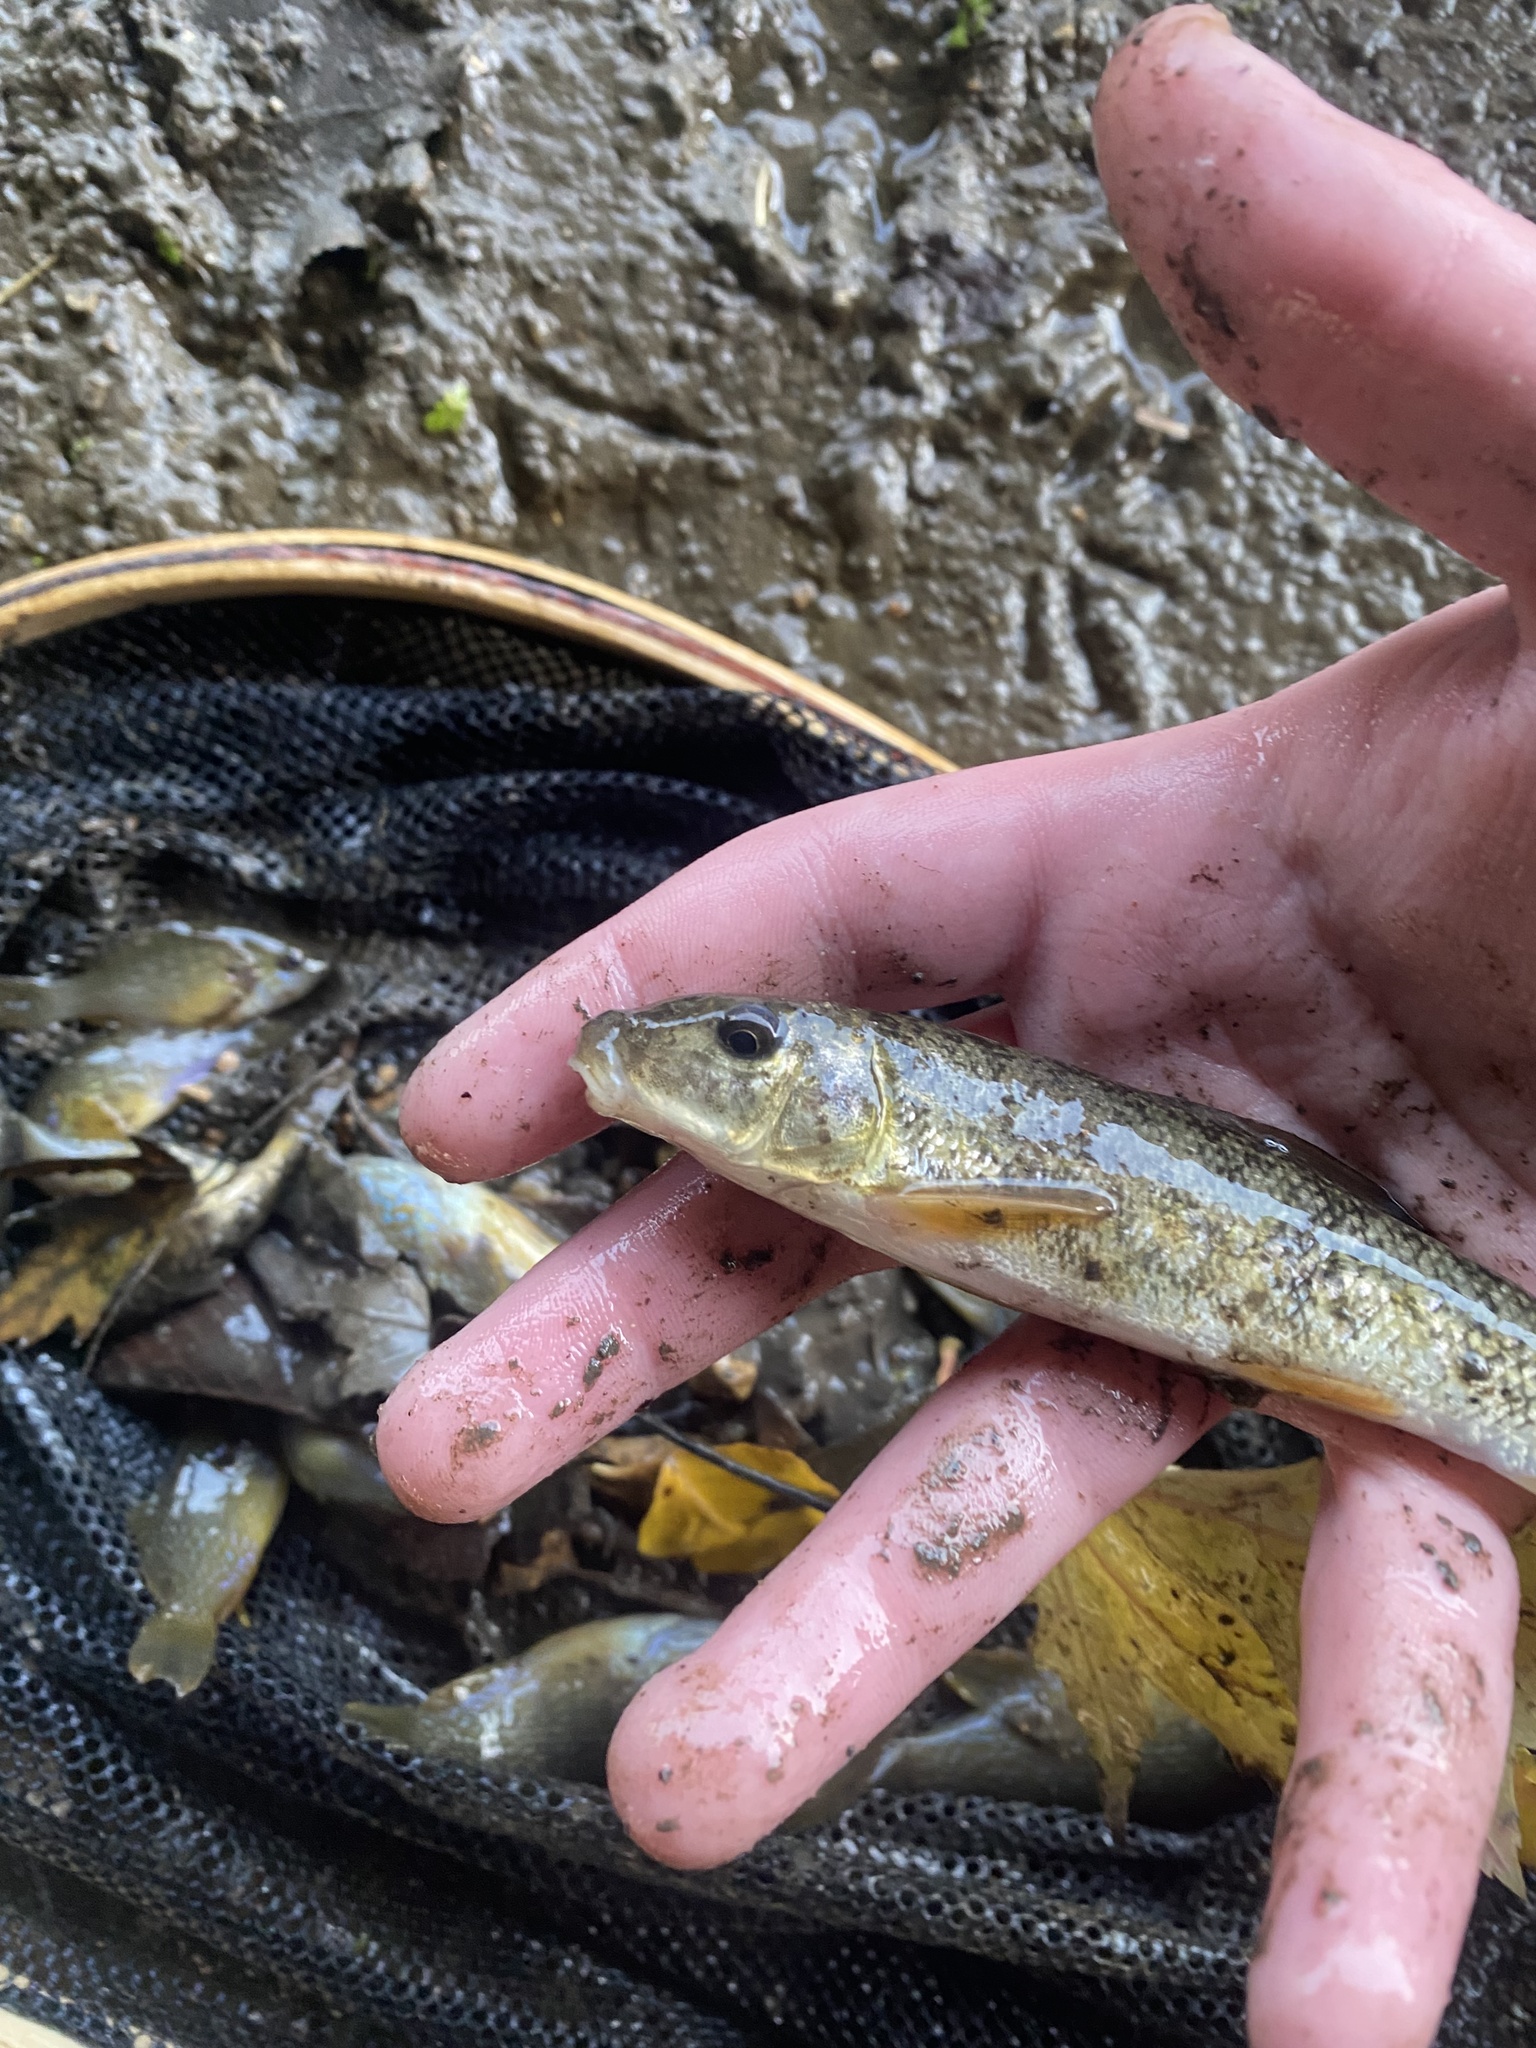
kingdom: Animalia
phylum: Chordata
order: Cypriniformes
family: Catostomidae
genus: Catostomus
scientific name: Catostomus commersonii
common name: White sucker
